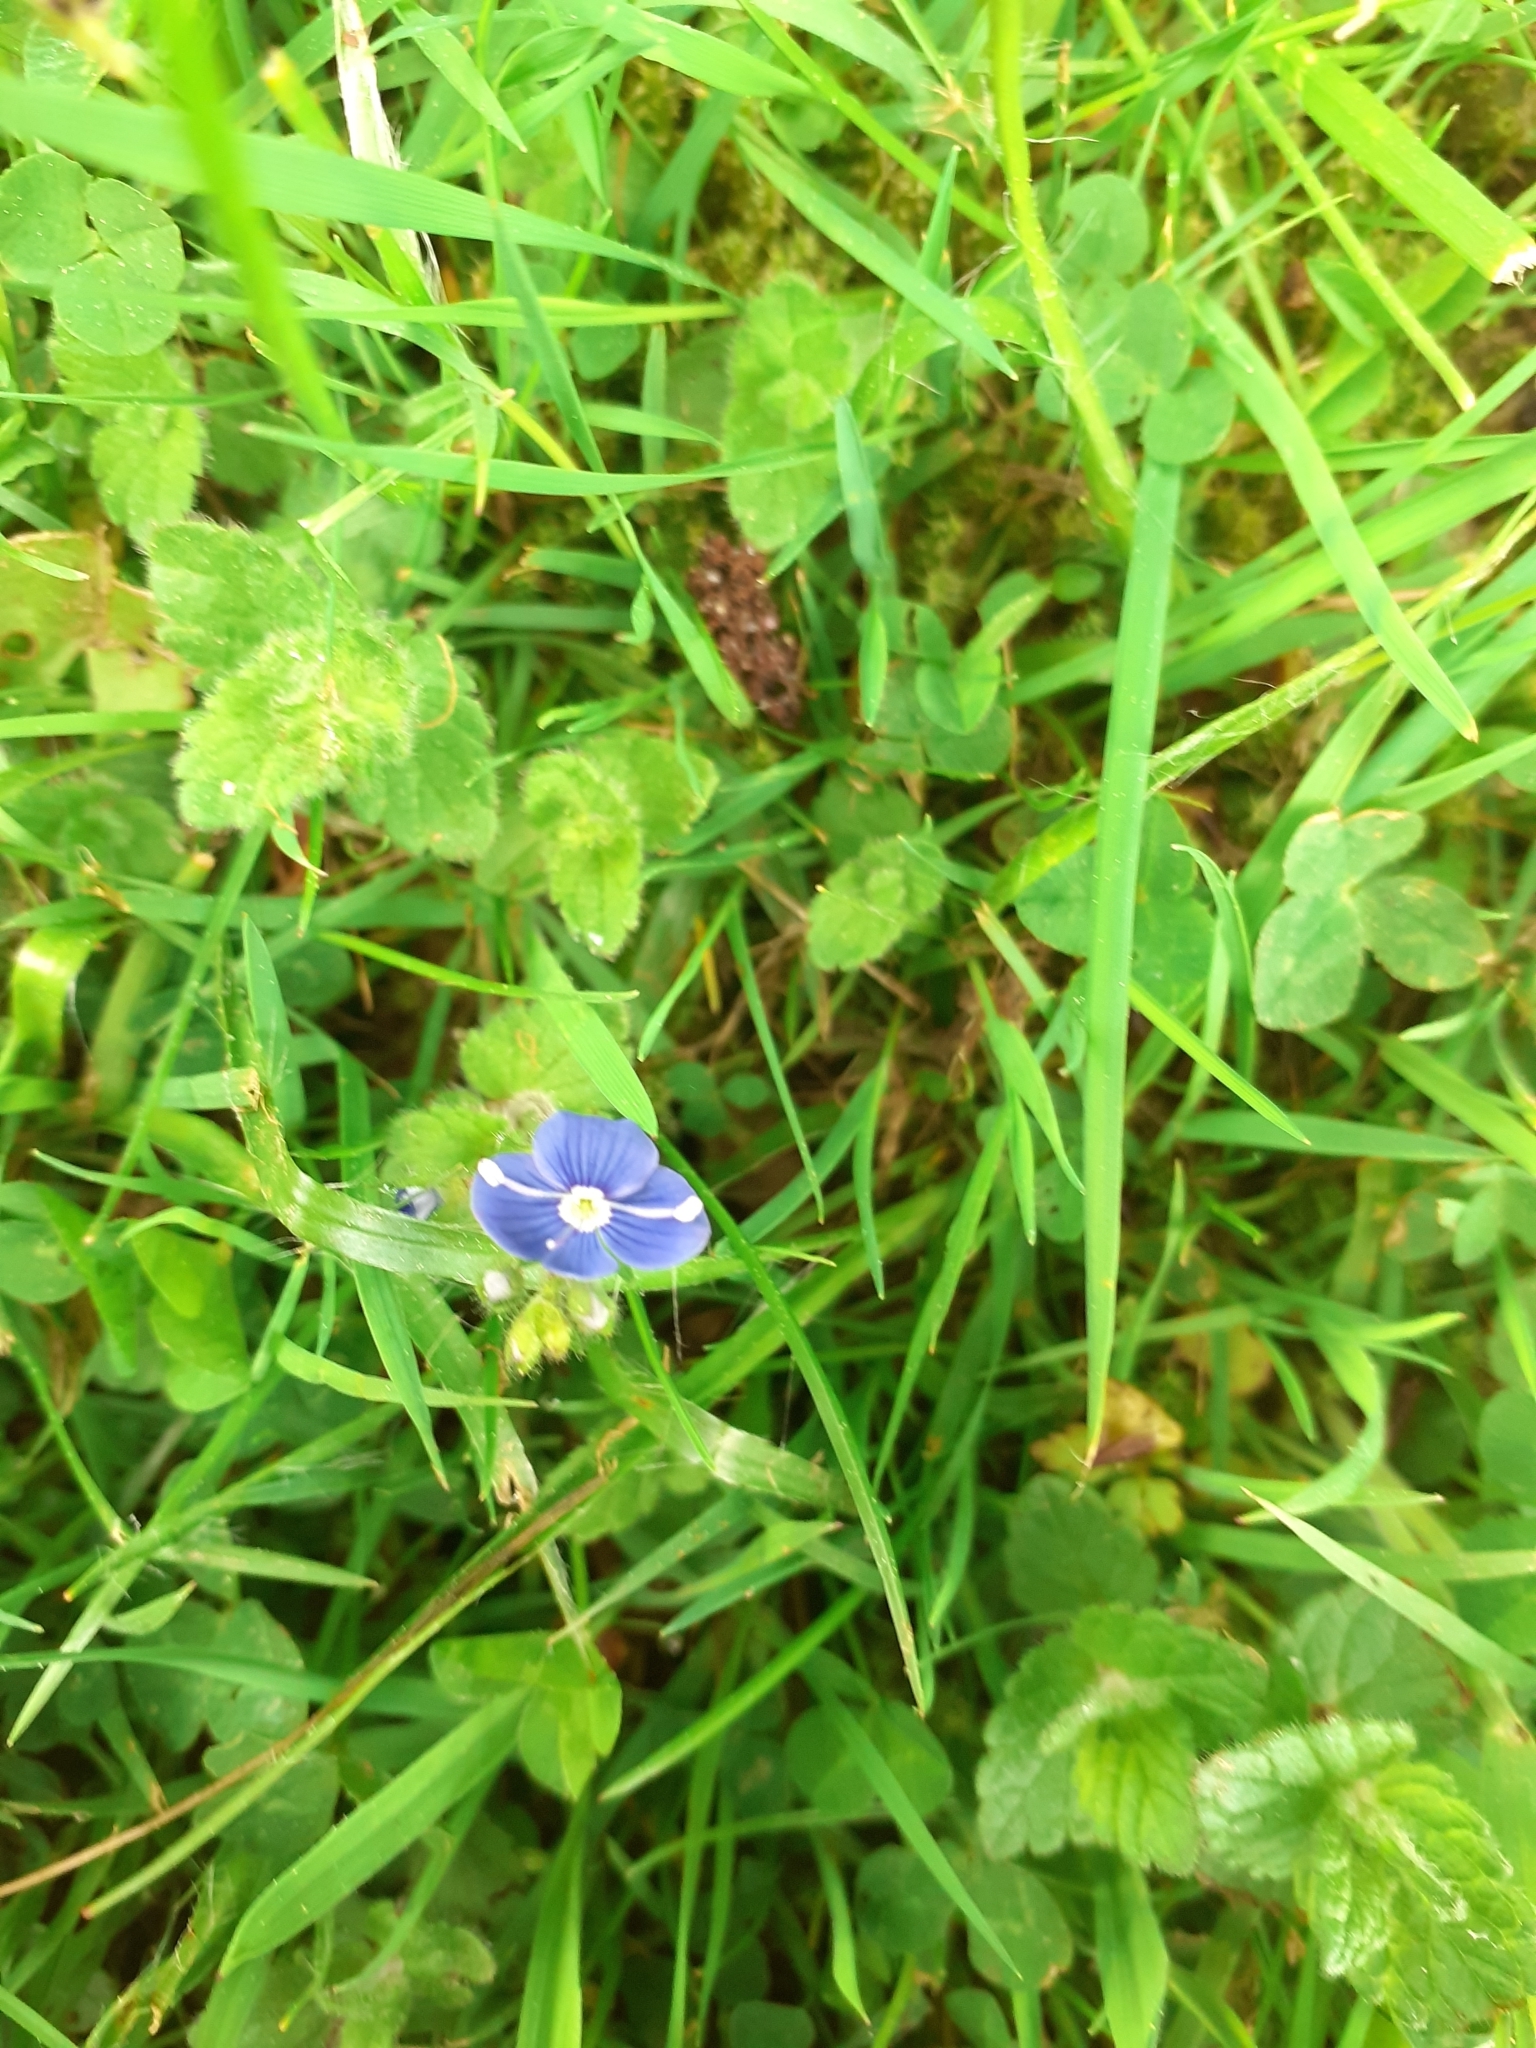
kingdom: Plantae
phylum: Tracheophyta
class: Magnoliopsida
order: Lamiales
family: Plantaginaceae
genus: Veronica
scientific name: Veronica chamaedrys
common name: Germander speedwell
